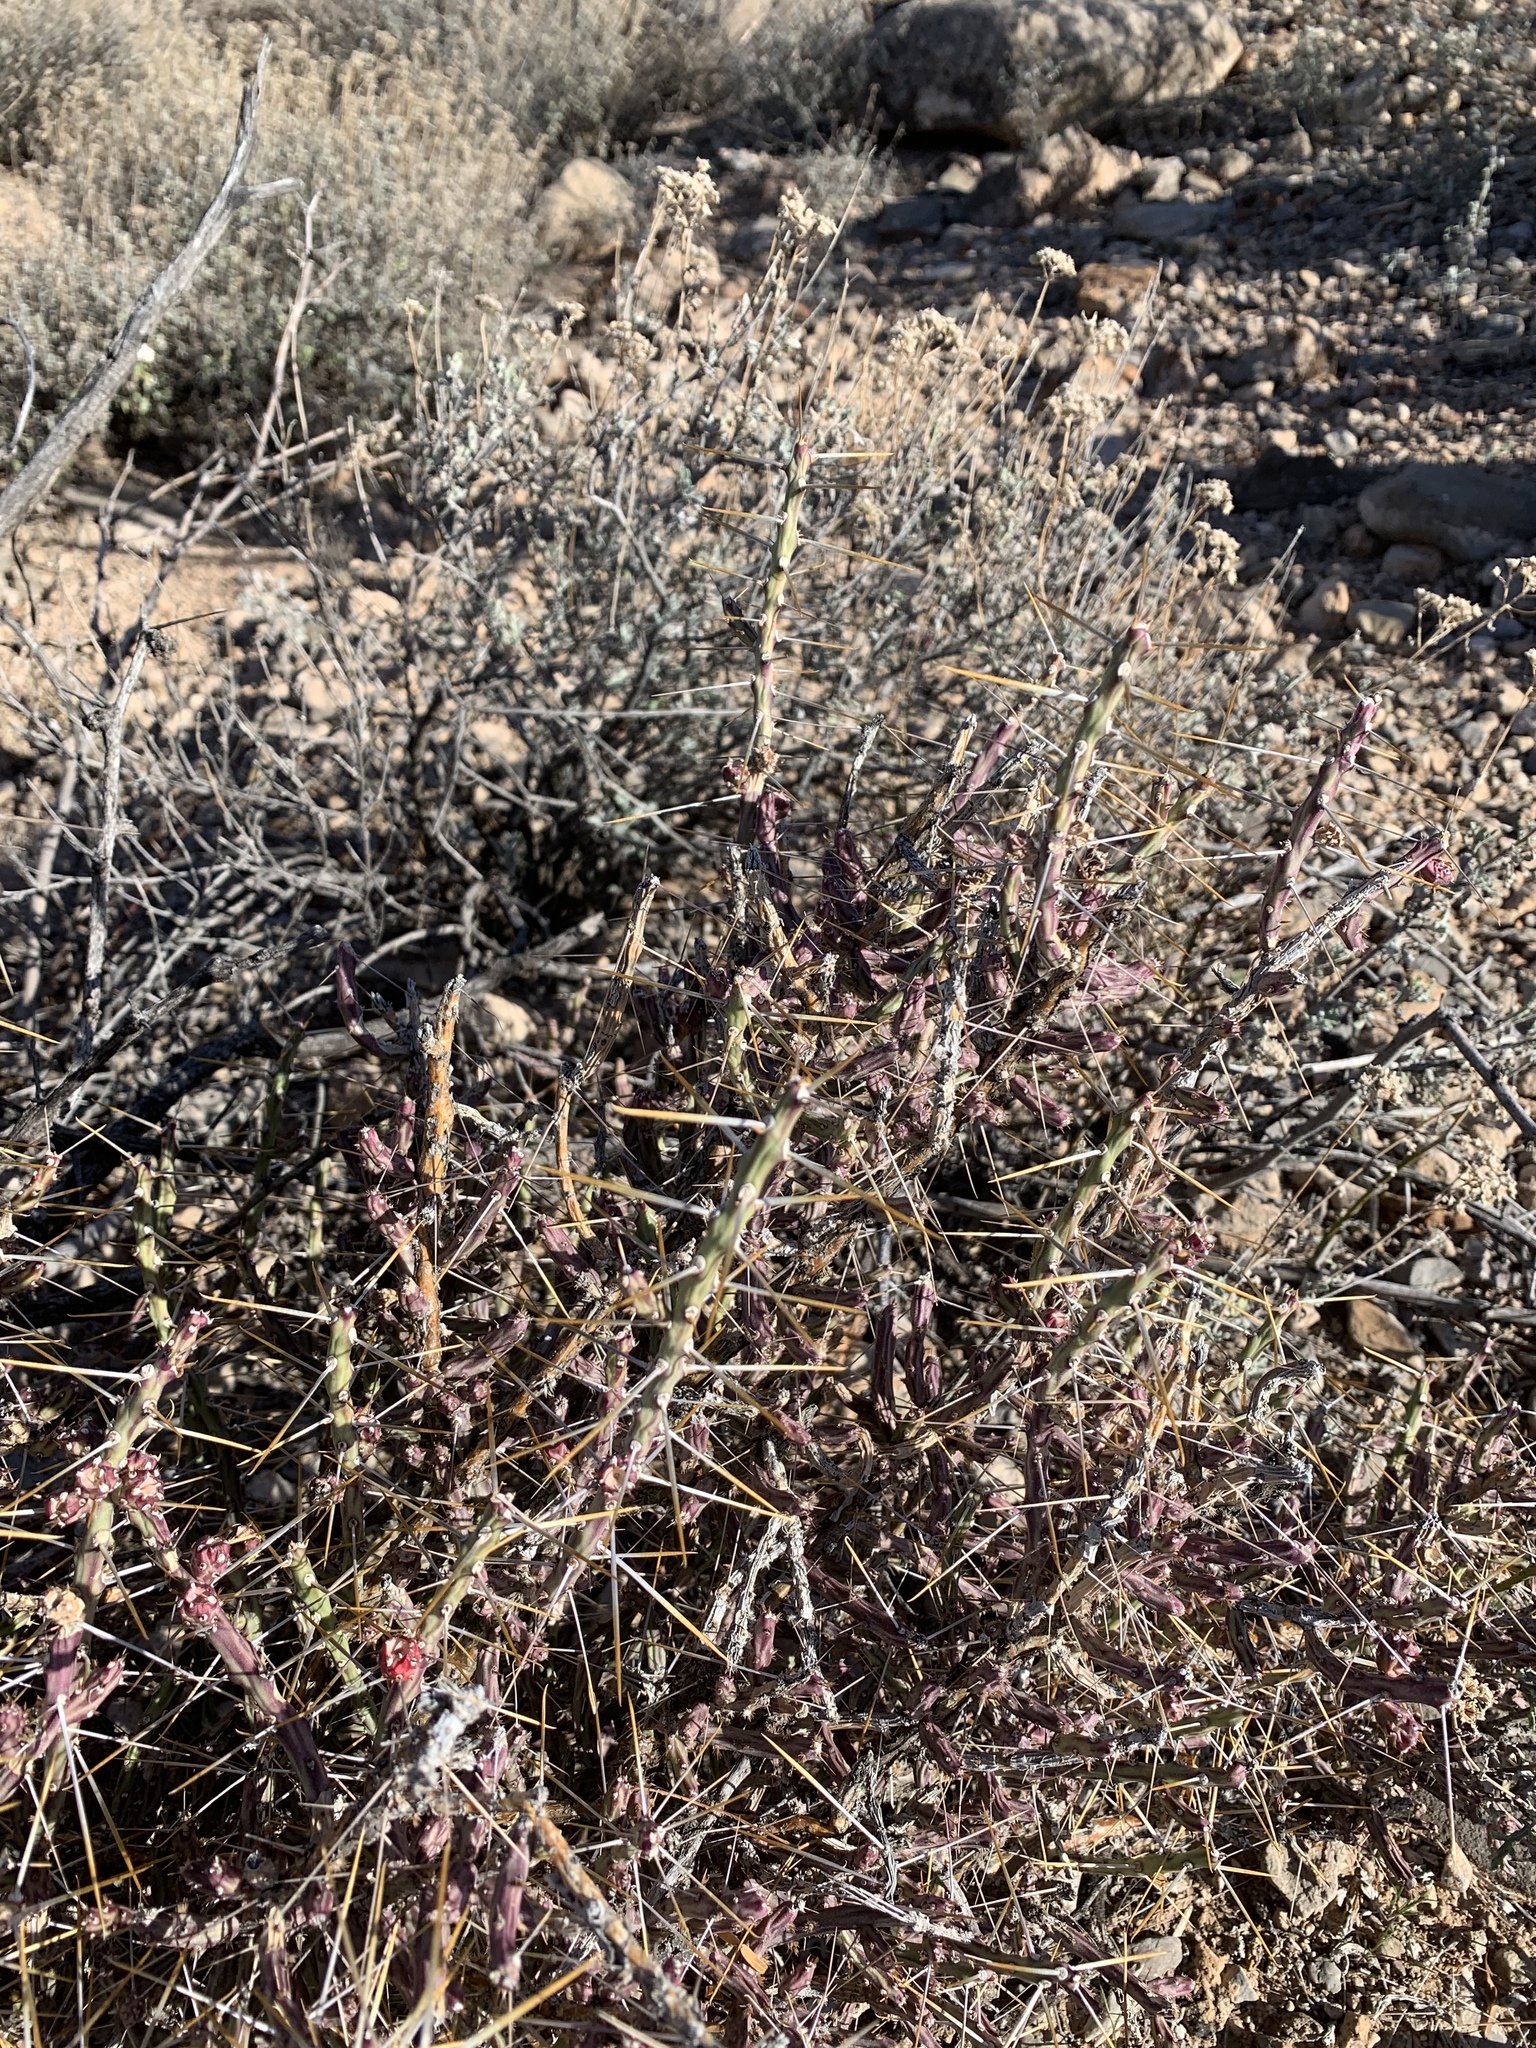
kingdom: Plantae
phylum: Tracheophyta
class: Magnoliopsida
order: Caryophyllales
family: Cactaceae
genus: Cylindropuntia
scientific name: Cylindropuntia leptocaulis
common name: Christmas cactus
